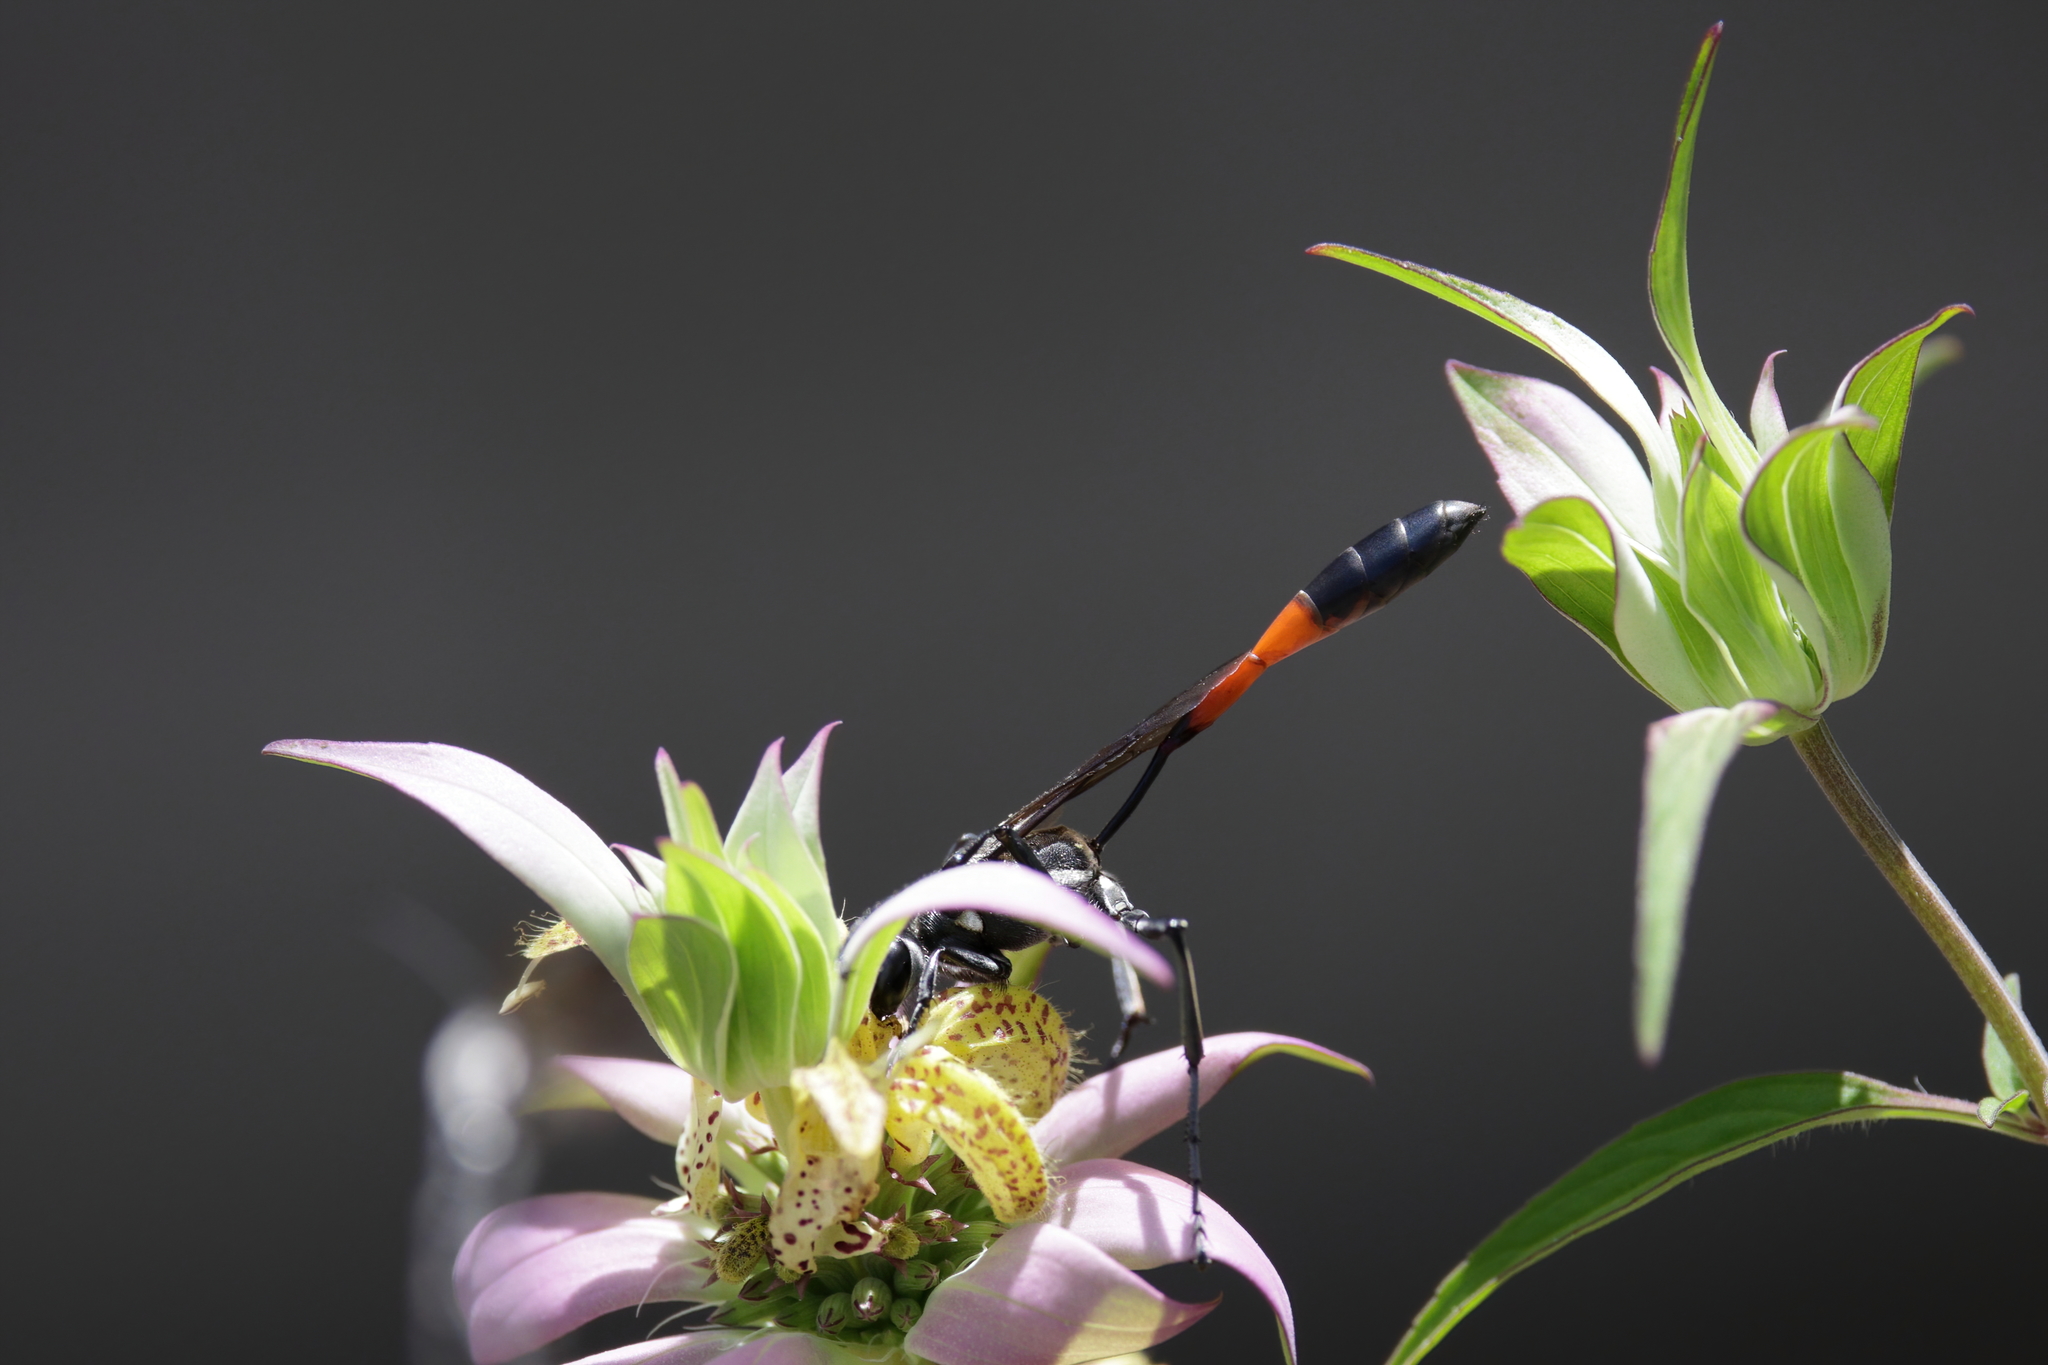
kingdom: Animalia
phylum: Arthropoda
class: Insecta
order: Hymenoptera
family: Sphecidae
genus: Ammophila
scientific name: Ammophila procera
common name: Common thread-waisted wasp
